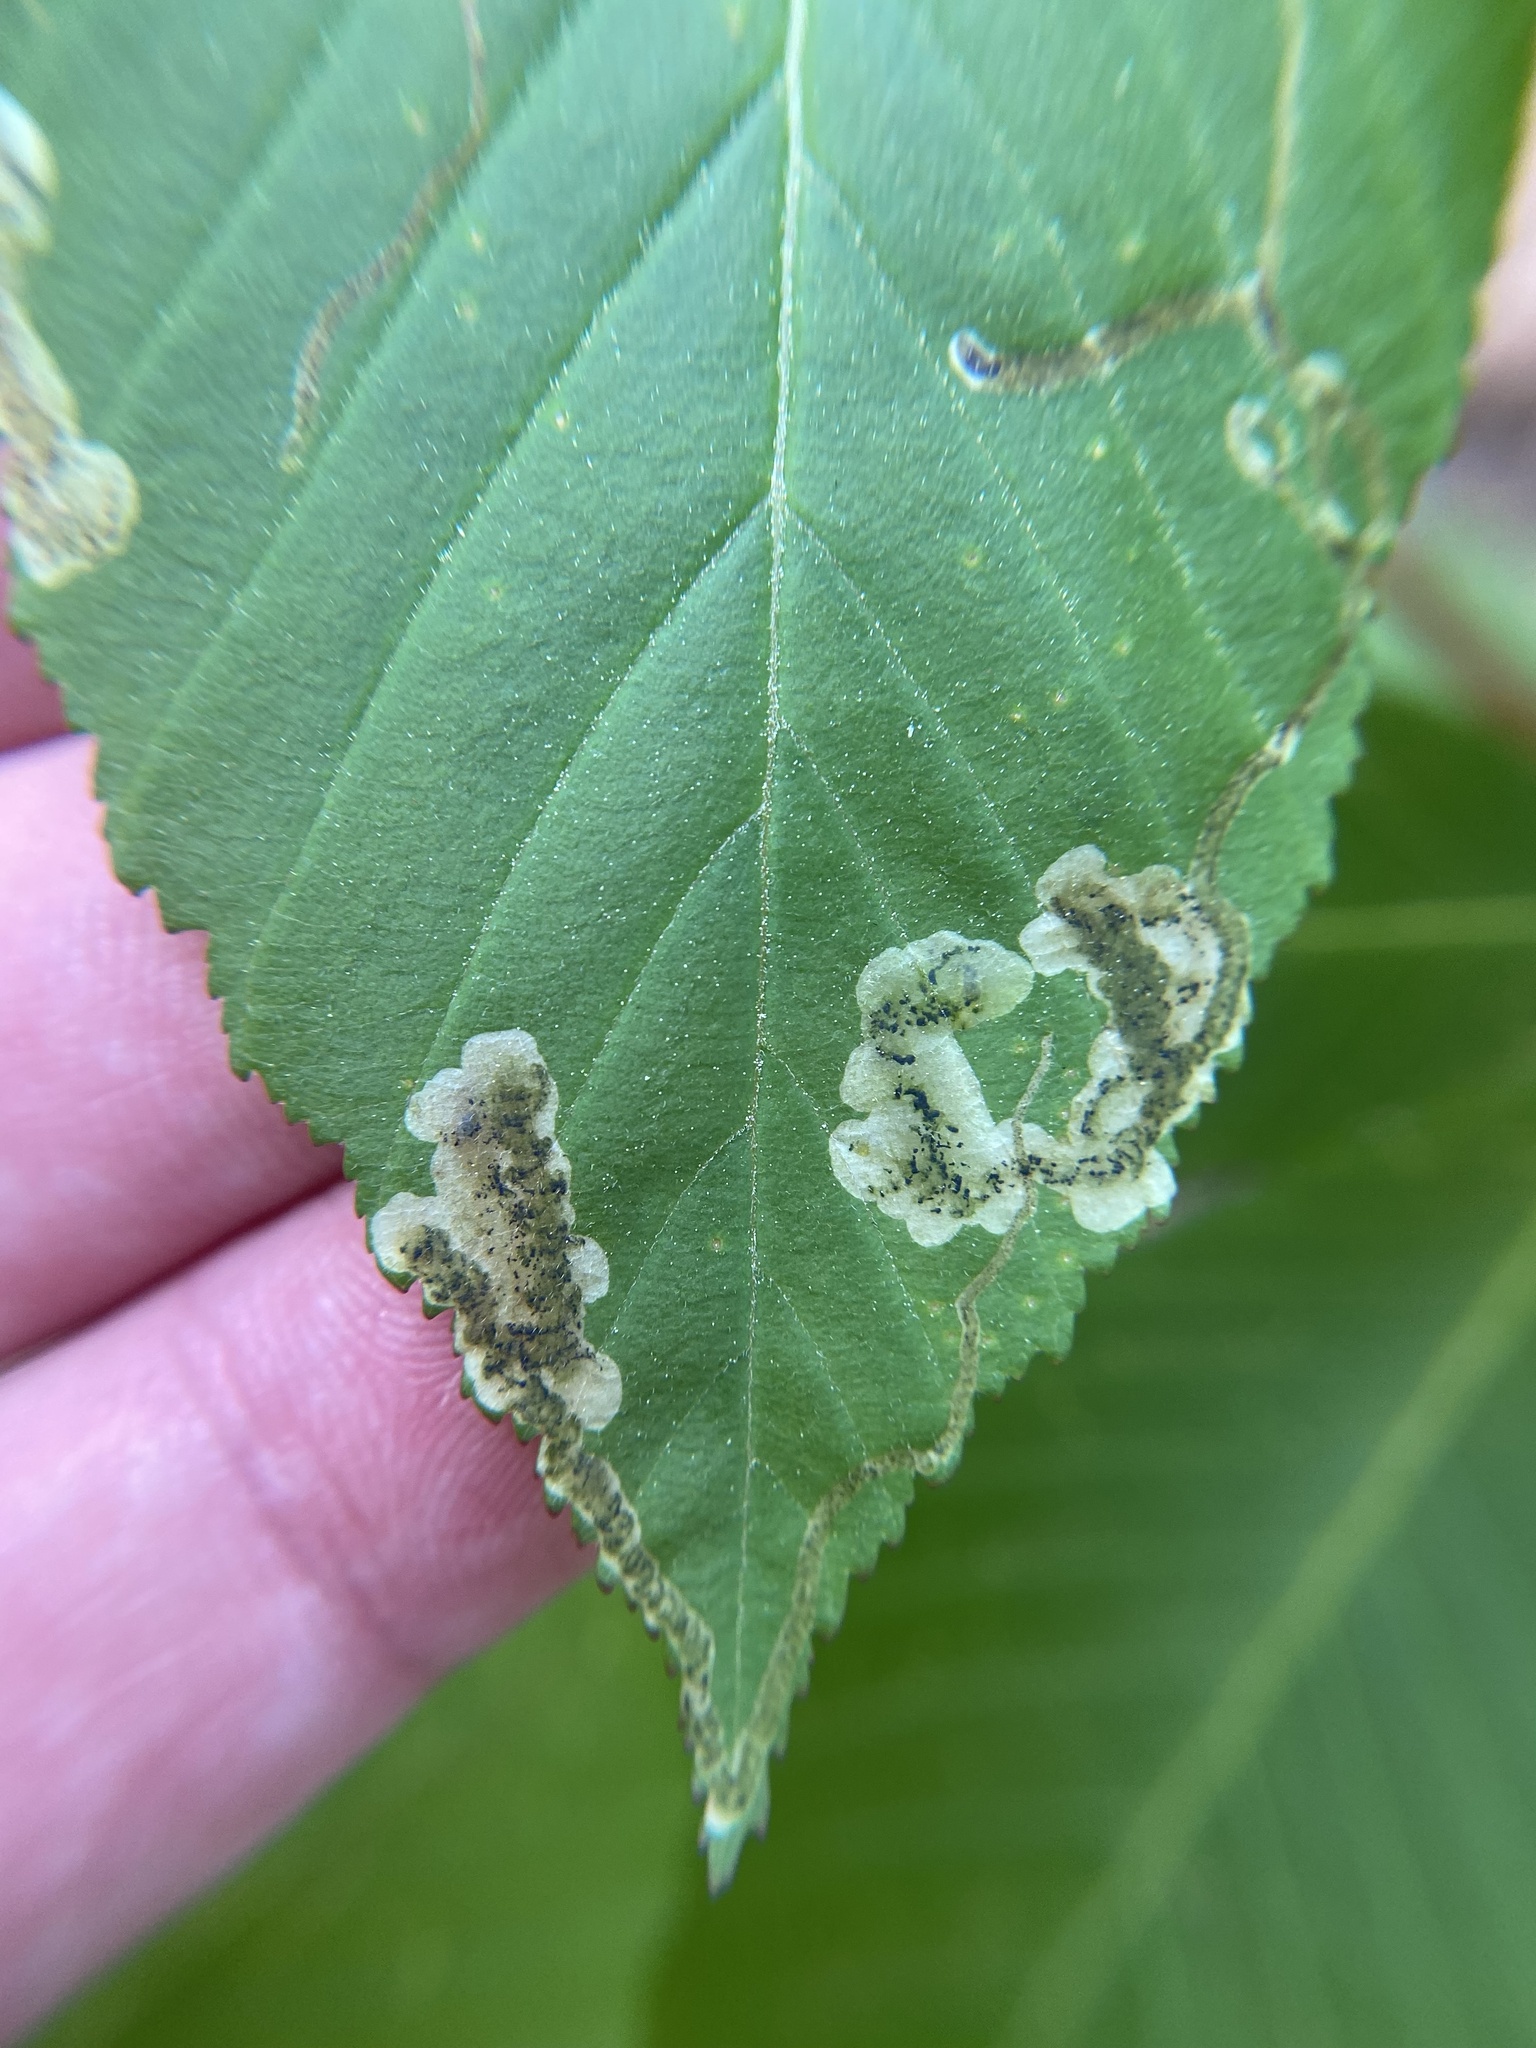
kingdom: Animalia
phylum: Arthropoda
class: Insecta
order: Diptera
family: Agromyzidae
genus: Phytomyza
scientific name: Phytomyza aesculi
